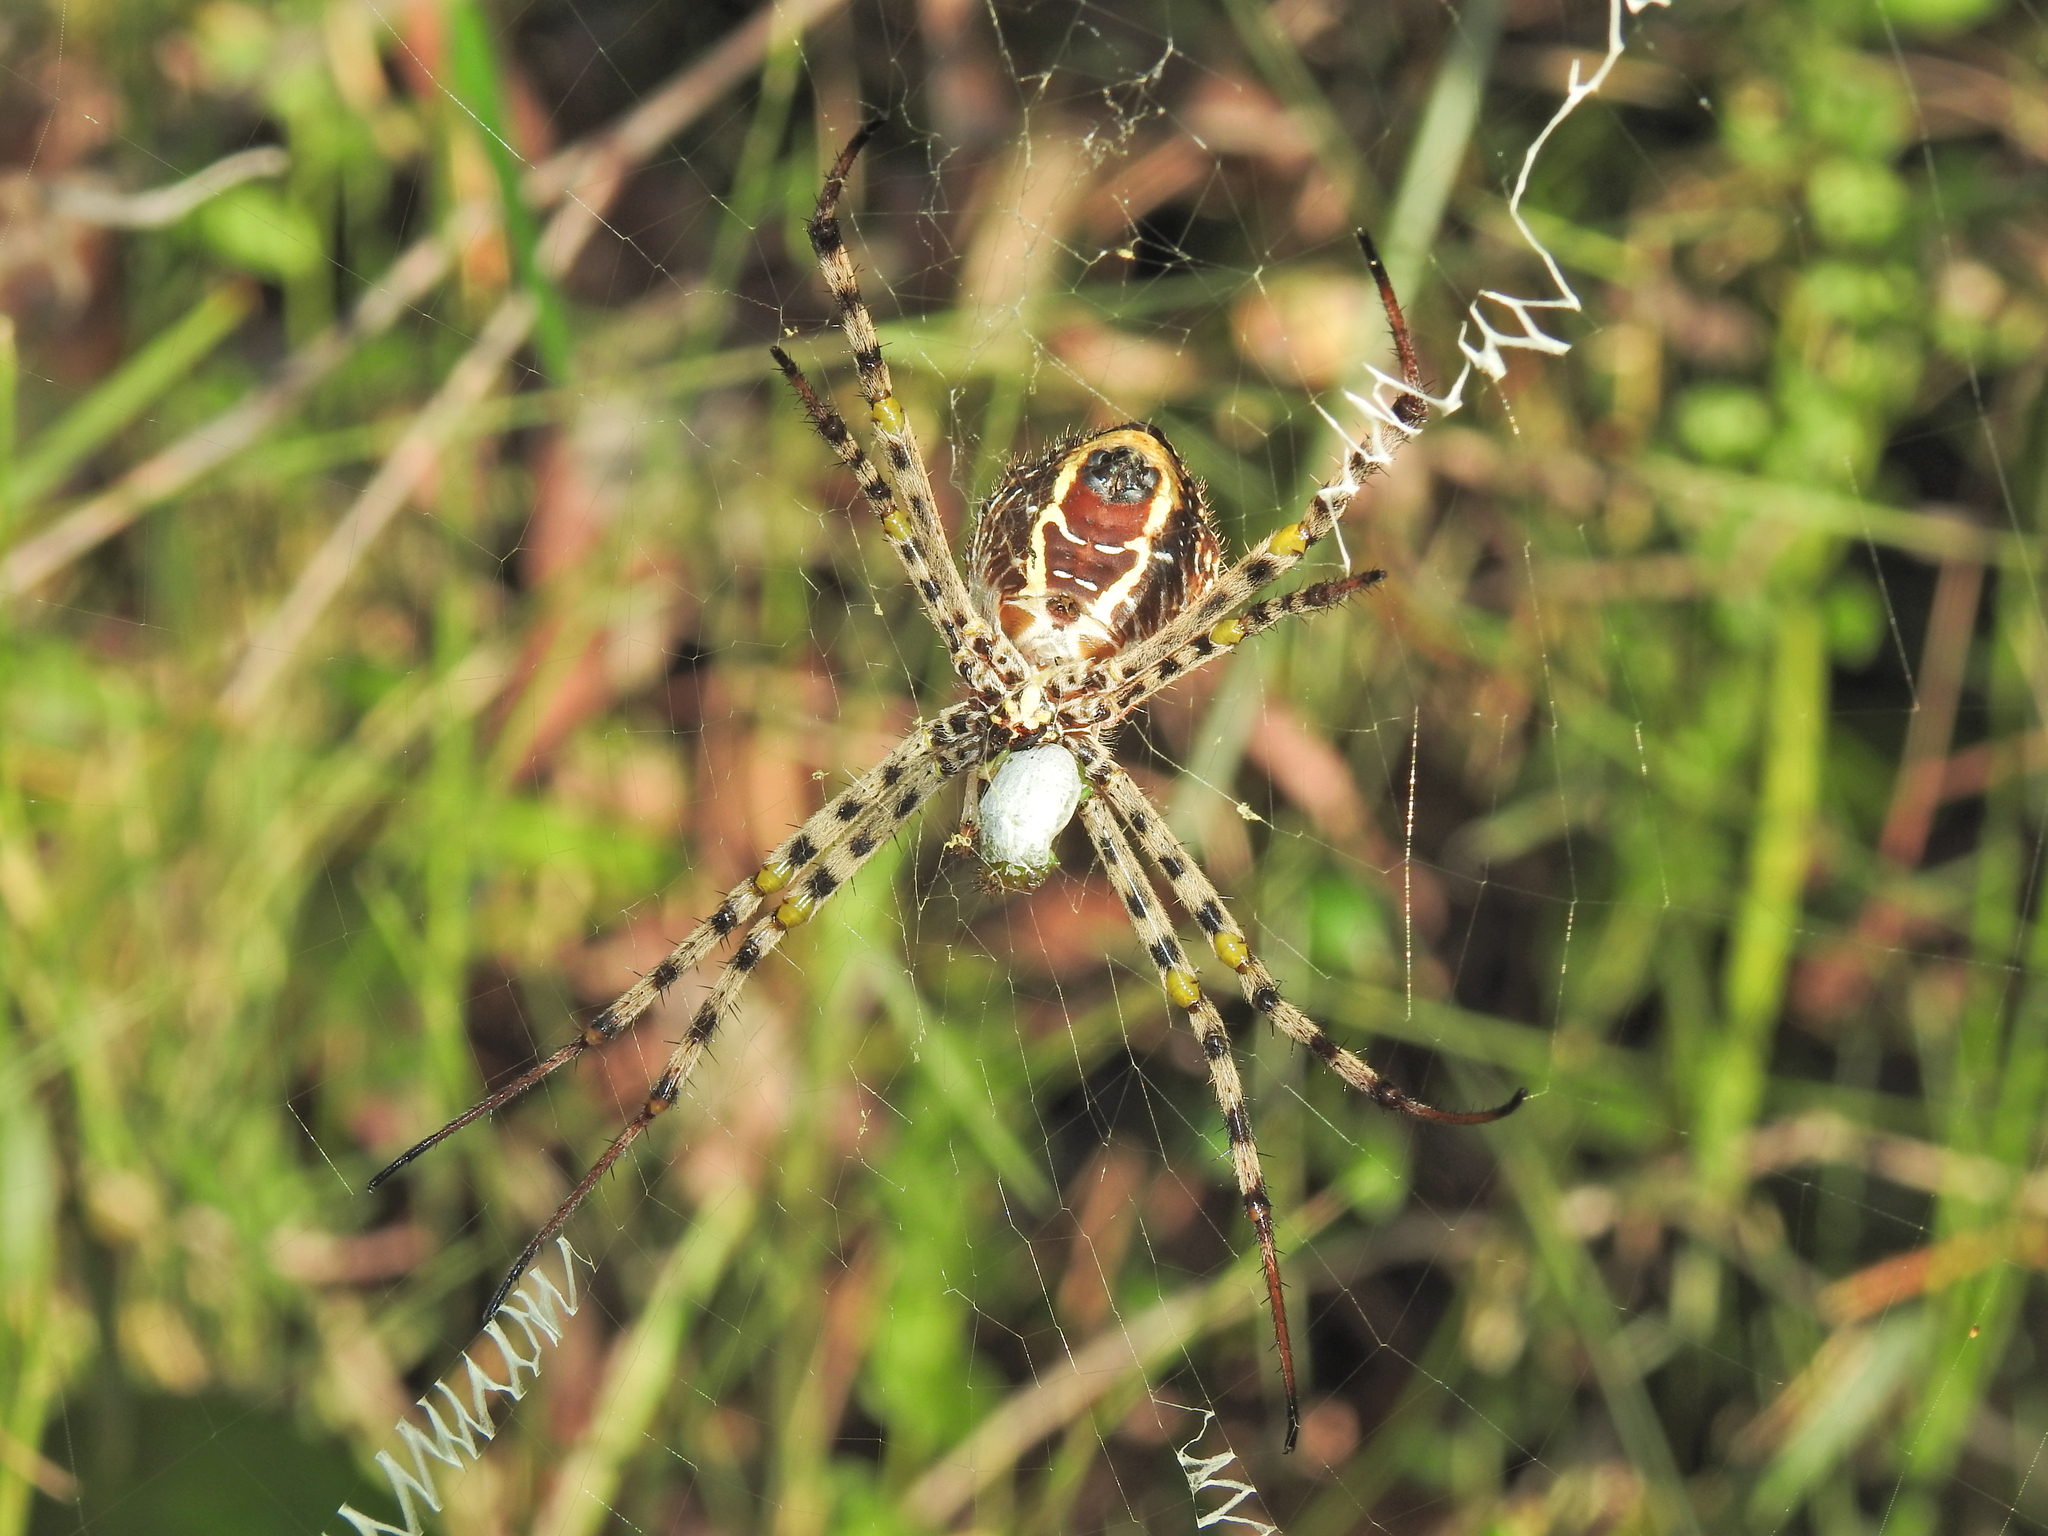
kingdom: Animalia
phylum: Arthropoda
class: Arachnida
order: Araneae
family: Araneidae
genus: Argiope
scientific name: Argiope magnifica
